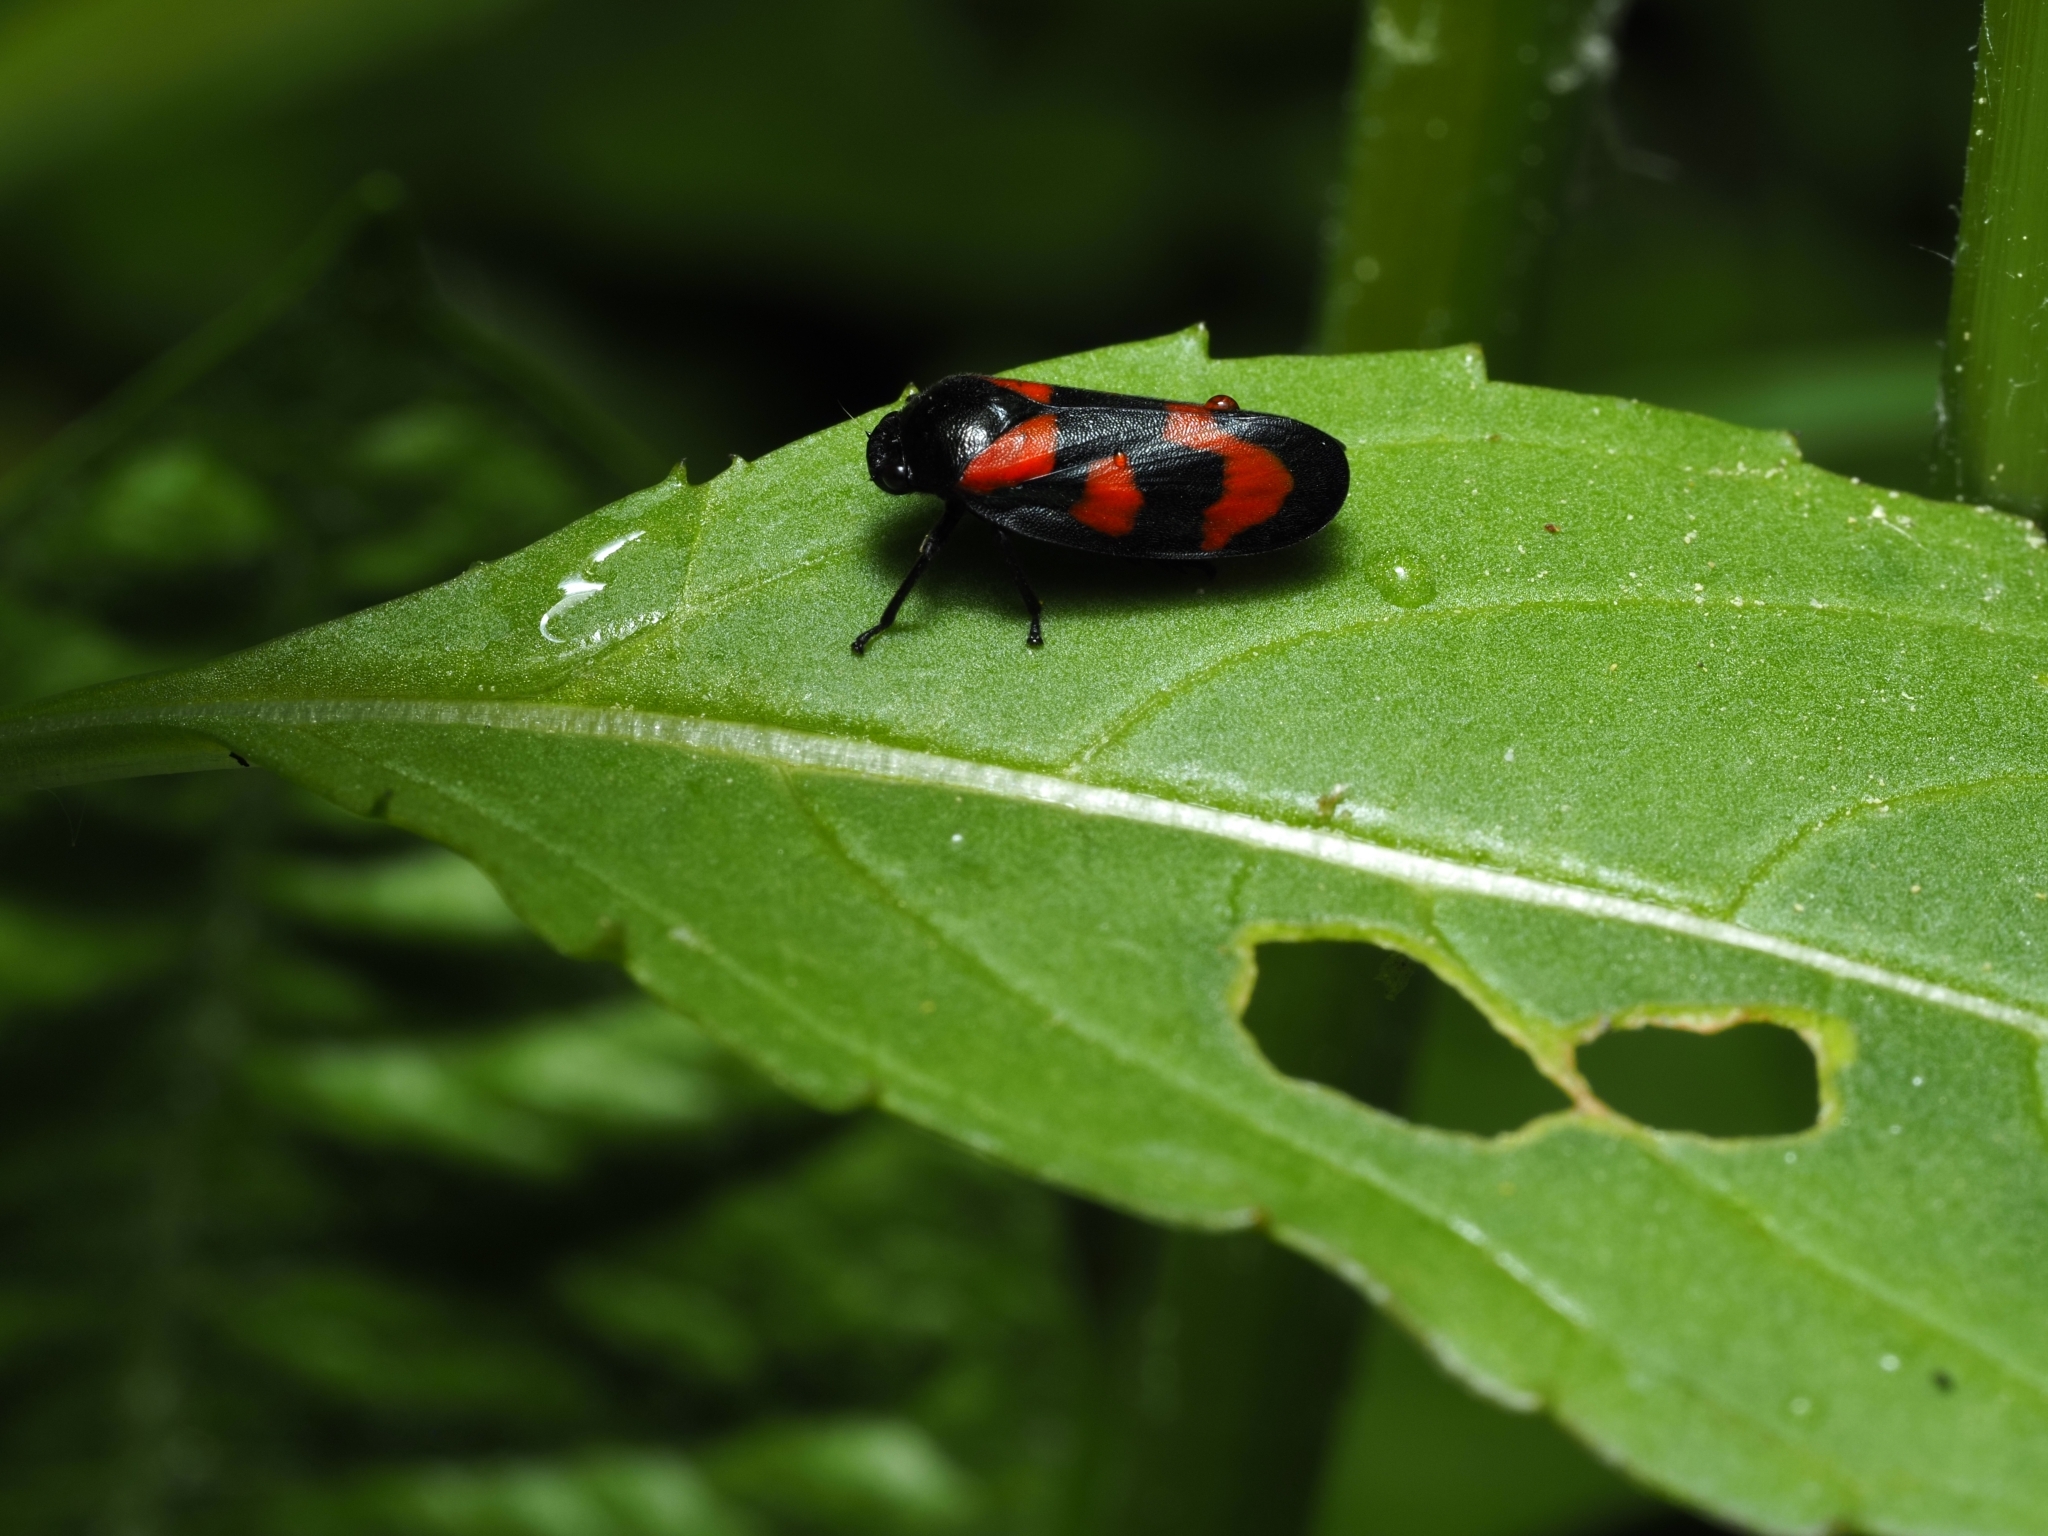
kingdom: Animalia
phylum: Arthropoda
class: Insecta
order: Hemiptera
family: Cercopidae
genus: Cercopis
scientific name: Cercopis vulnerata
